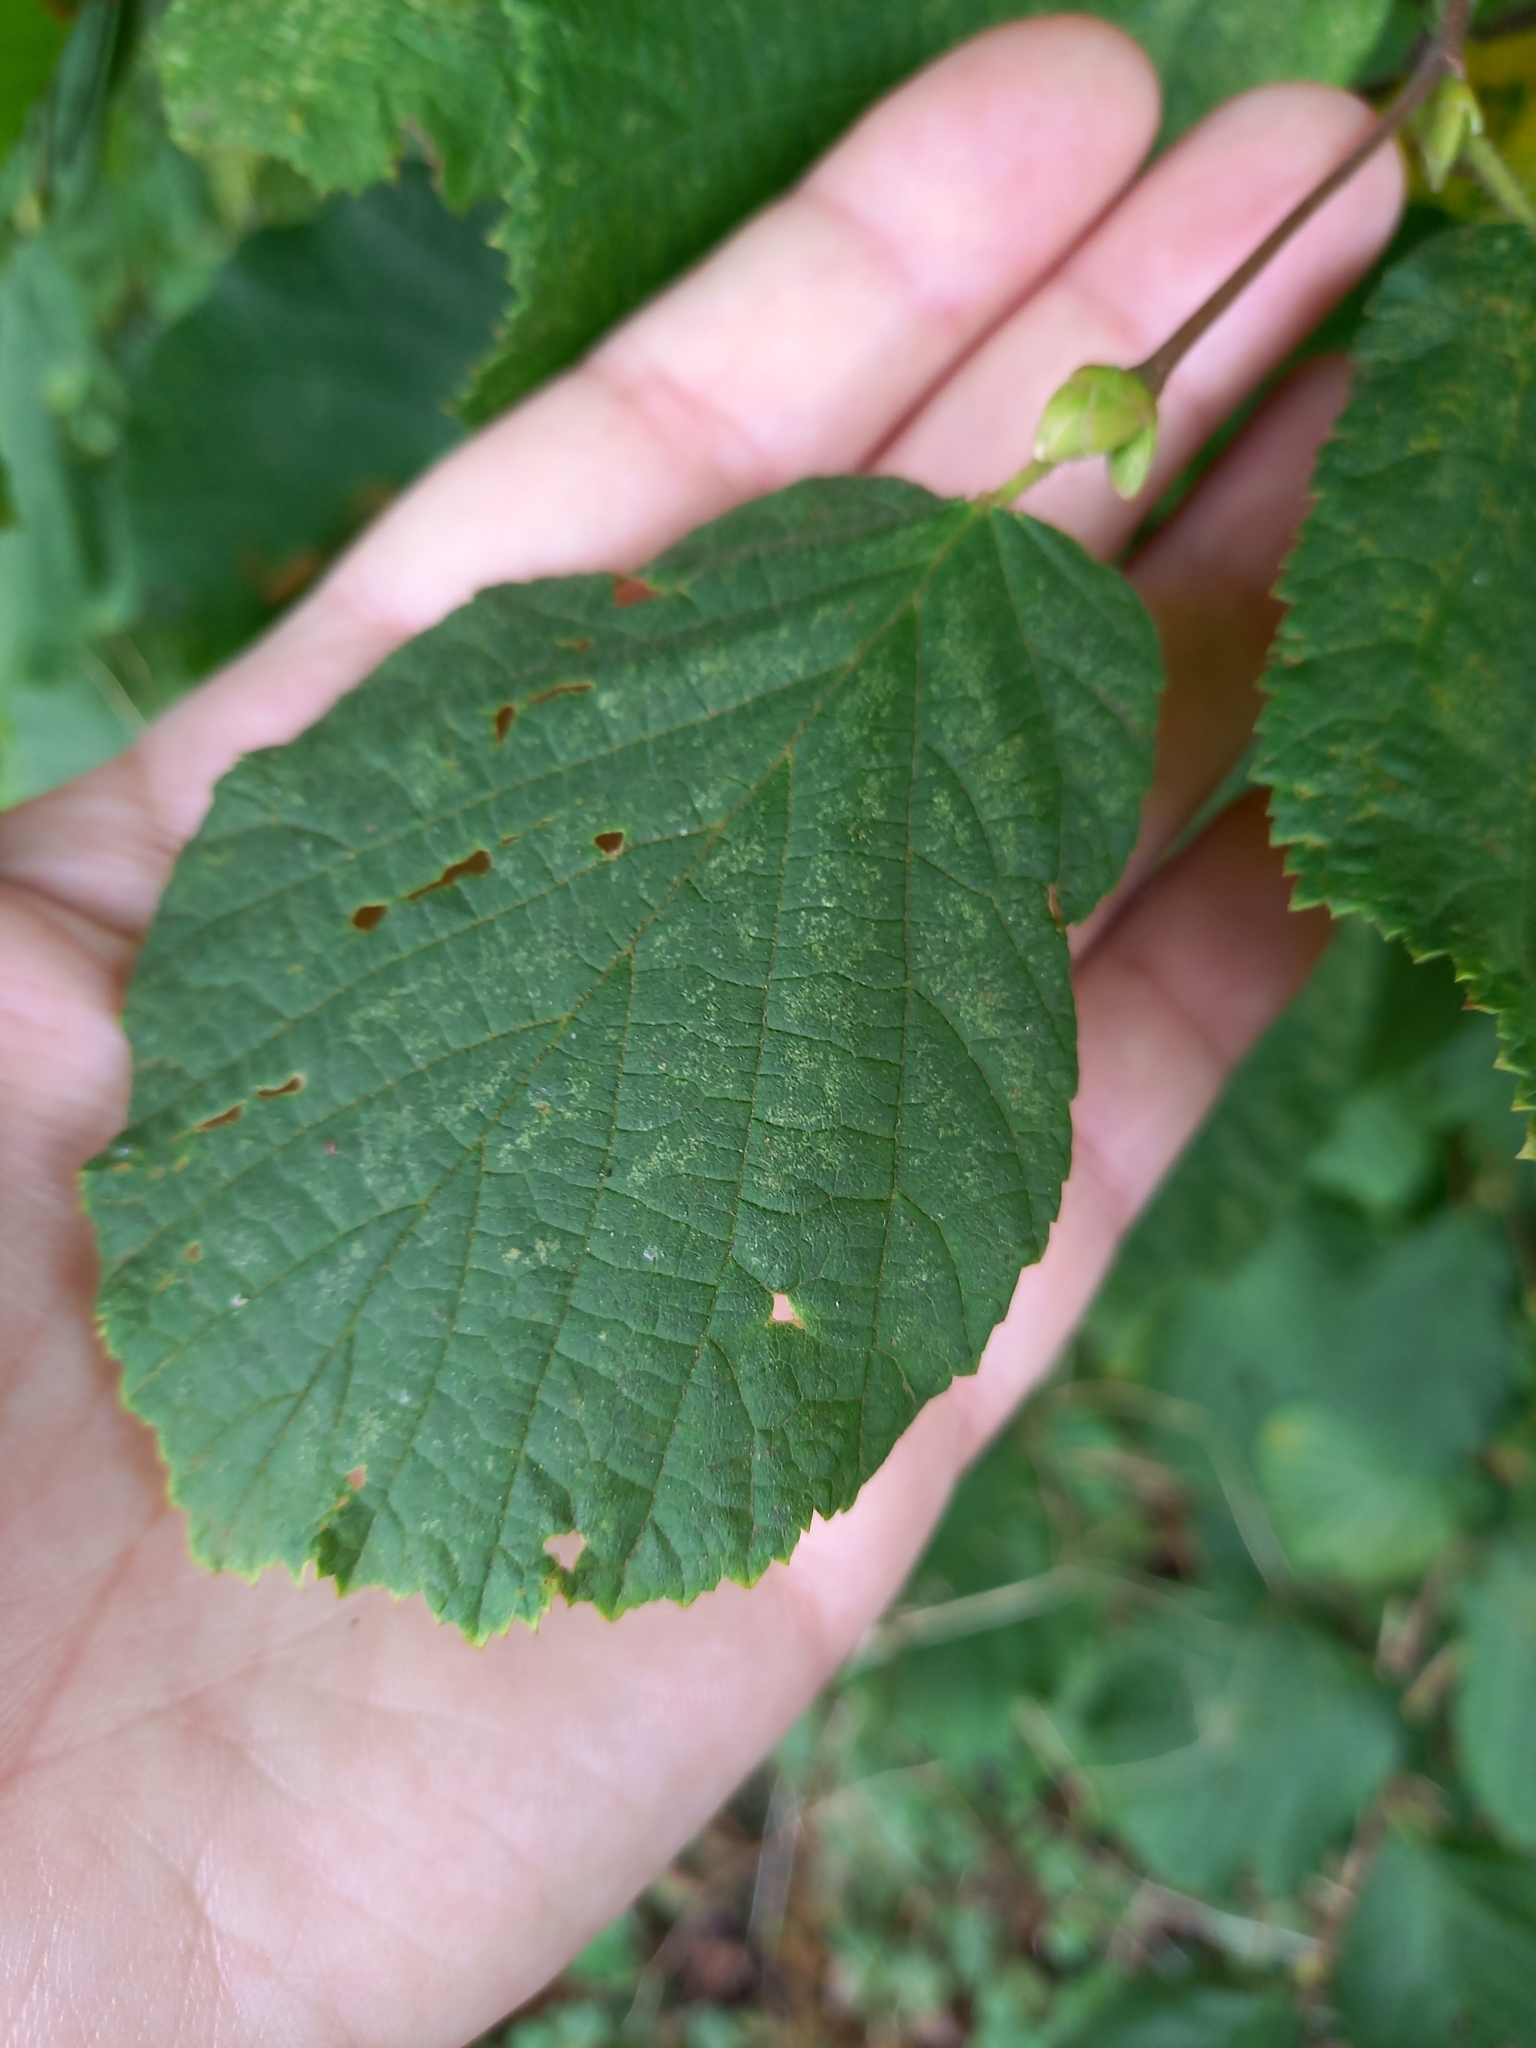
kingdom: Plantae
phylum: Tracheophyta
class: Magnoliopsida
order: Fagales
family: Betulaceae
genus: Corylus
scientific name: Corylus avellana
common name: European hazel
